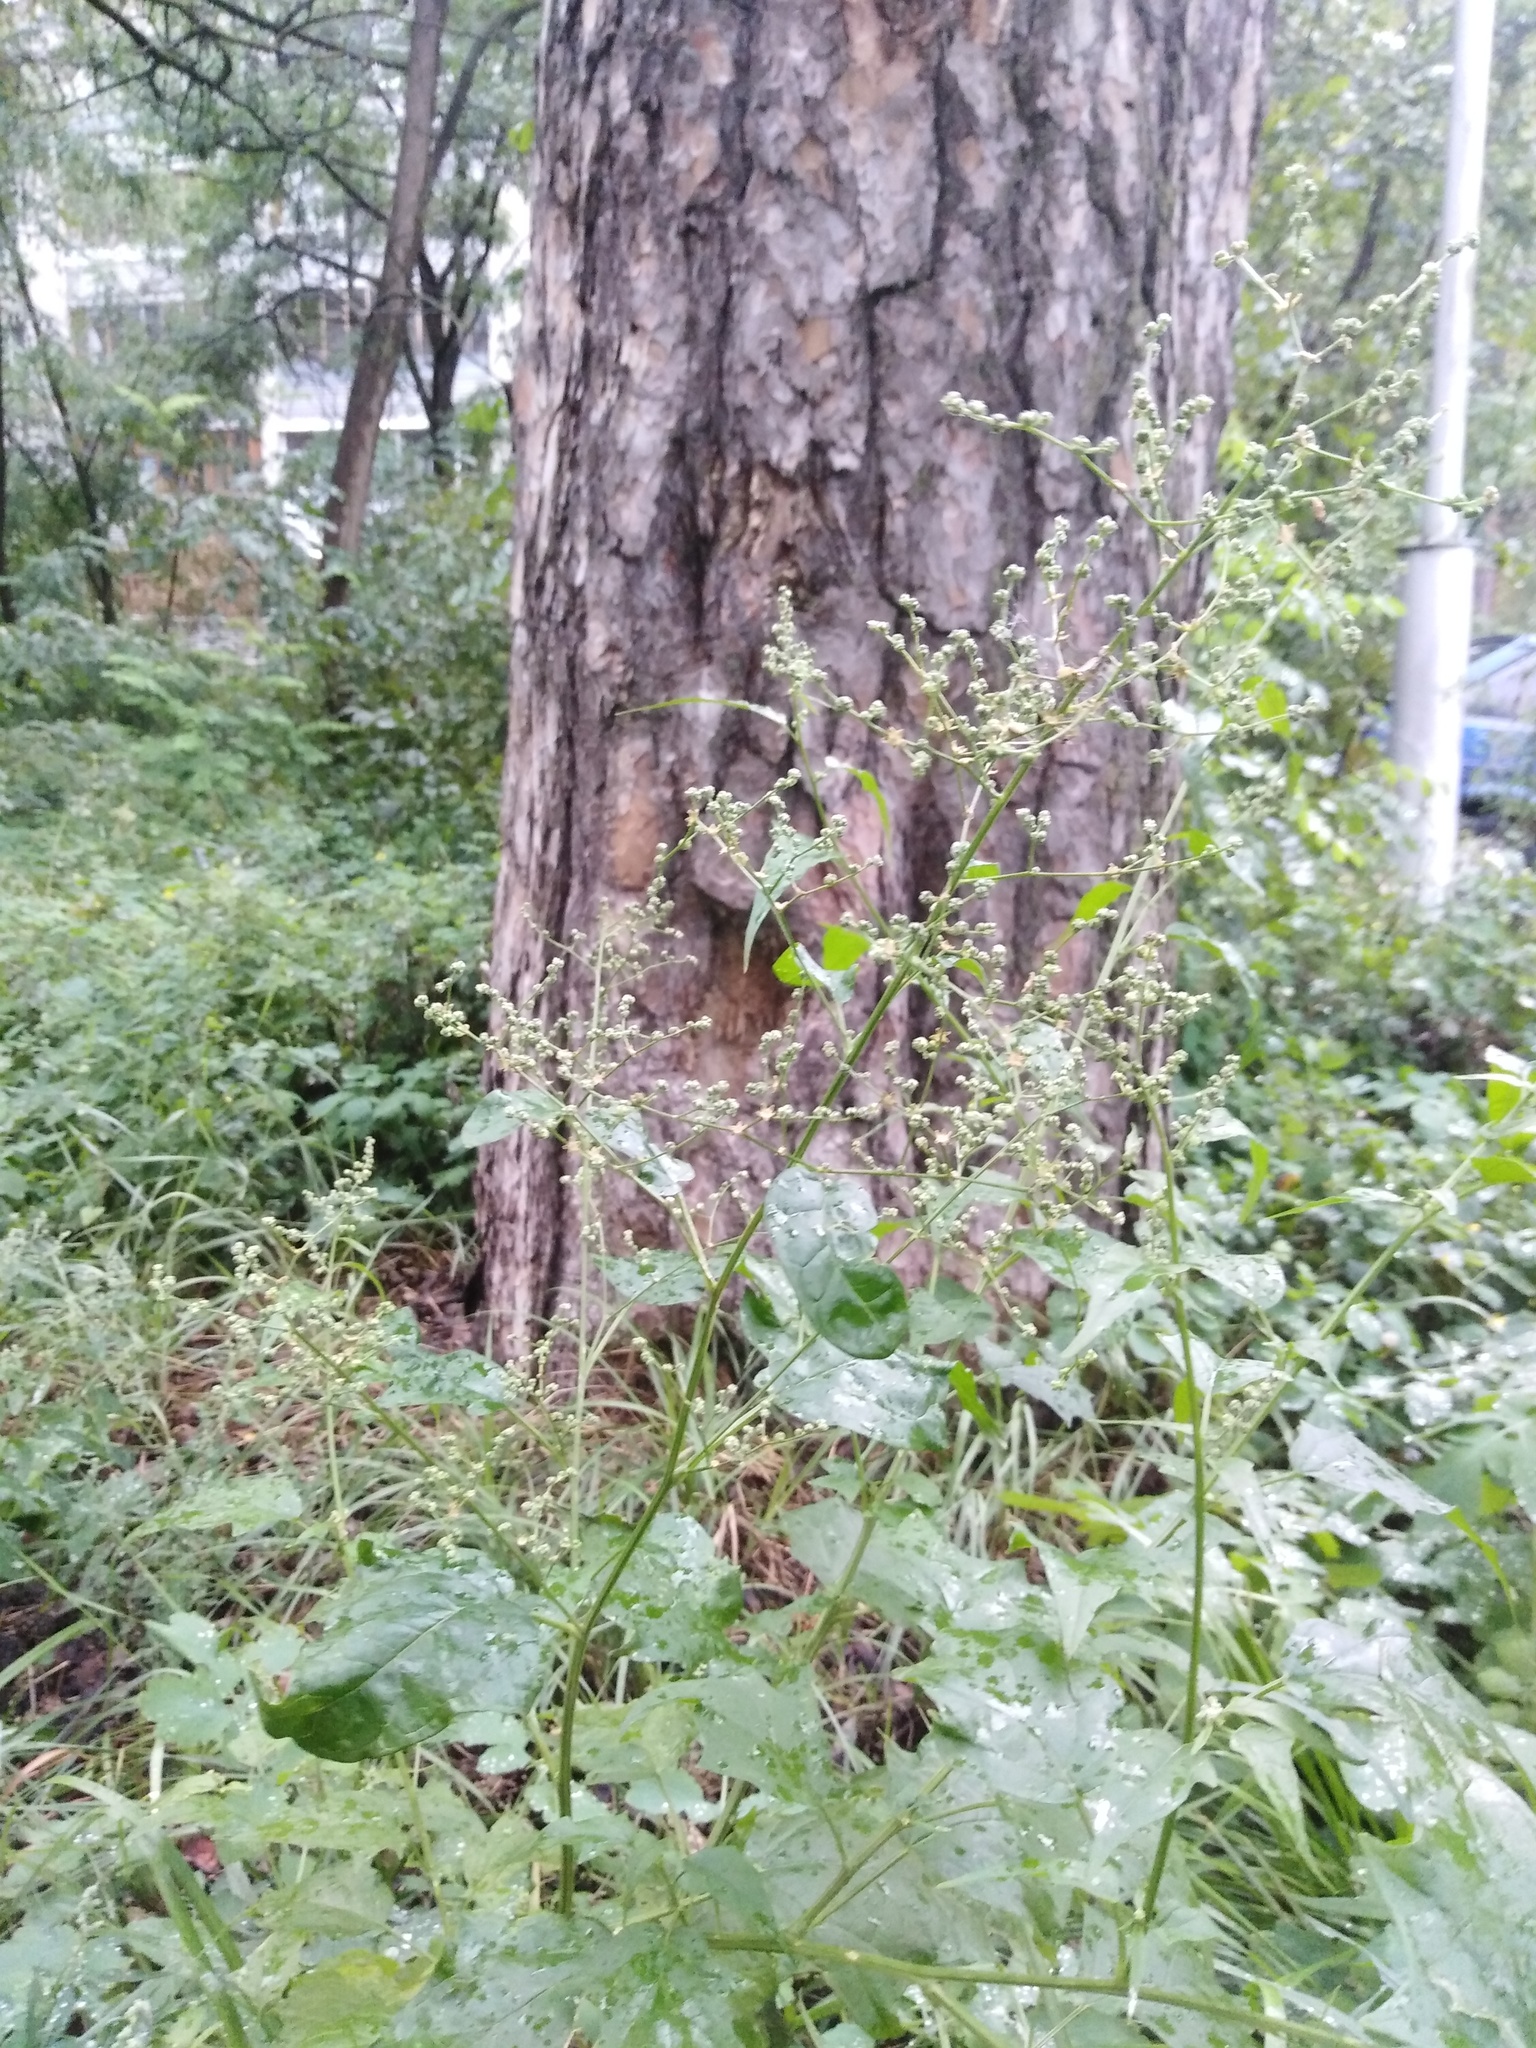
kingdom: Plantae
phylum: Tracheophyta
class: Magnoliopsida
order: Caryophyllales
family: Amaranthaceae
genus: Chenopodiastrum
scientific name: Chenopodiastrum hybridum
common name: Mapleleaf goosefoot
